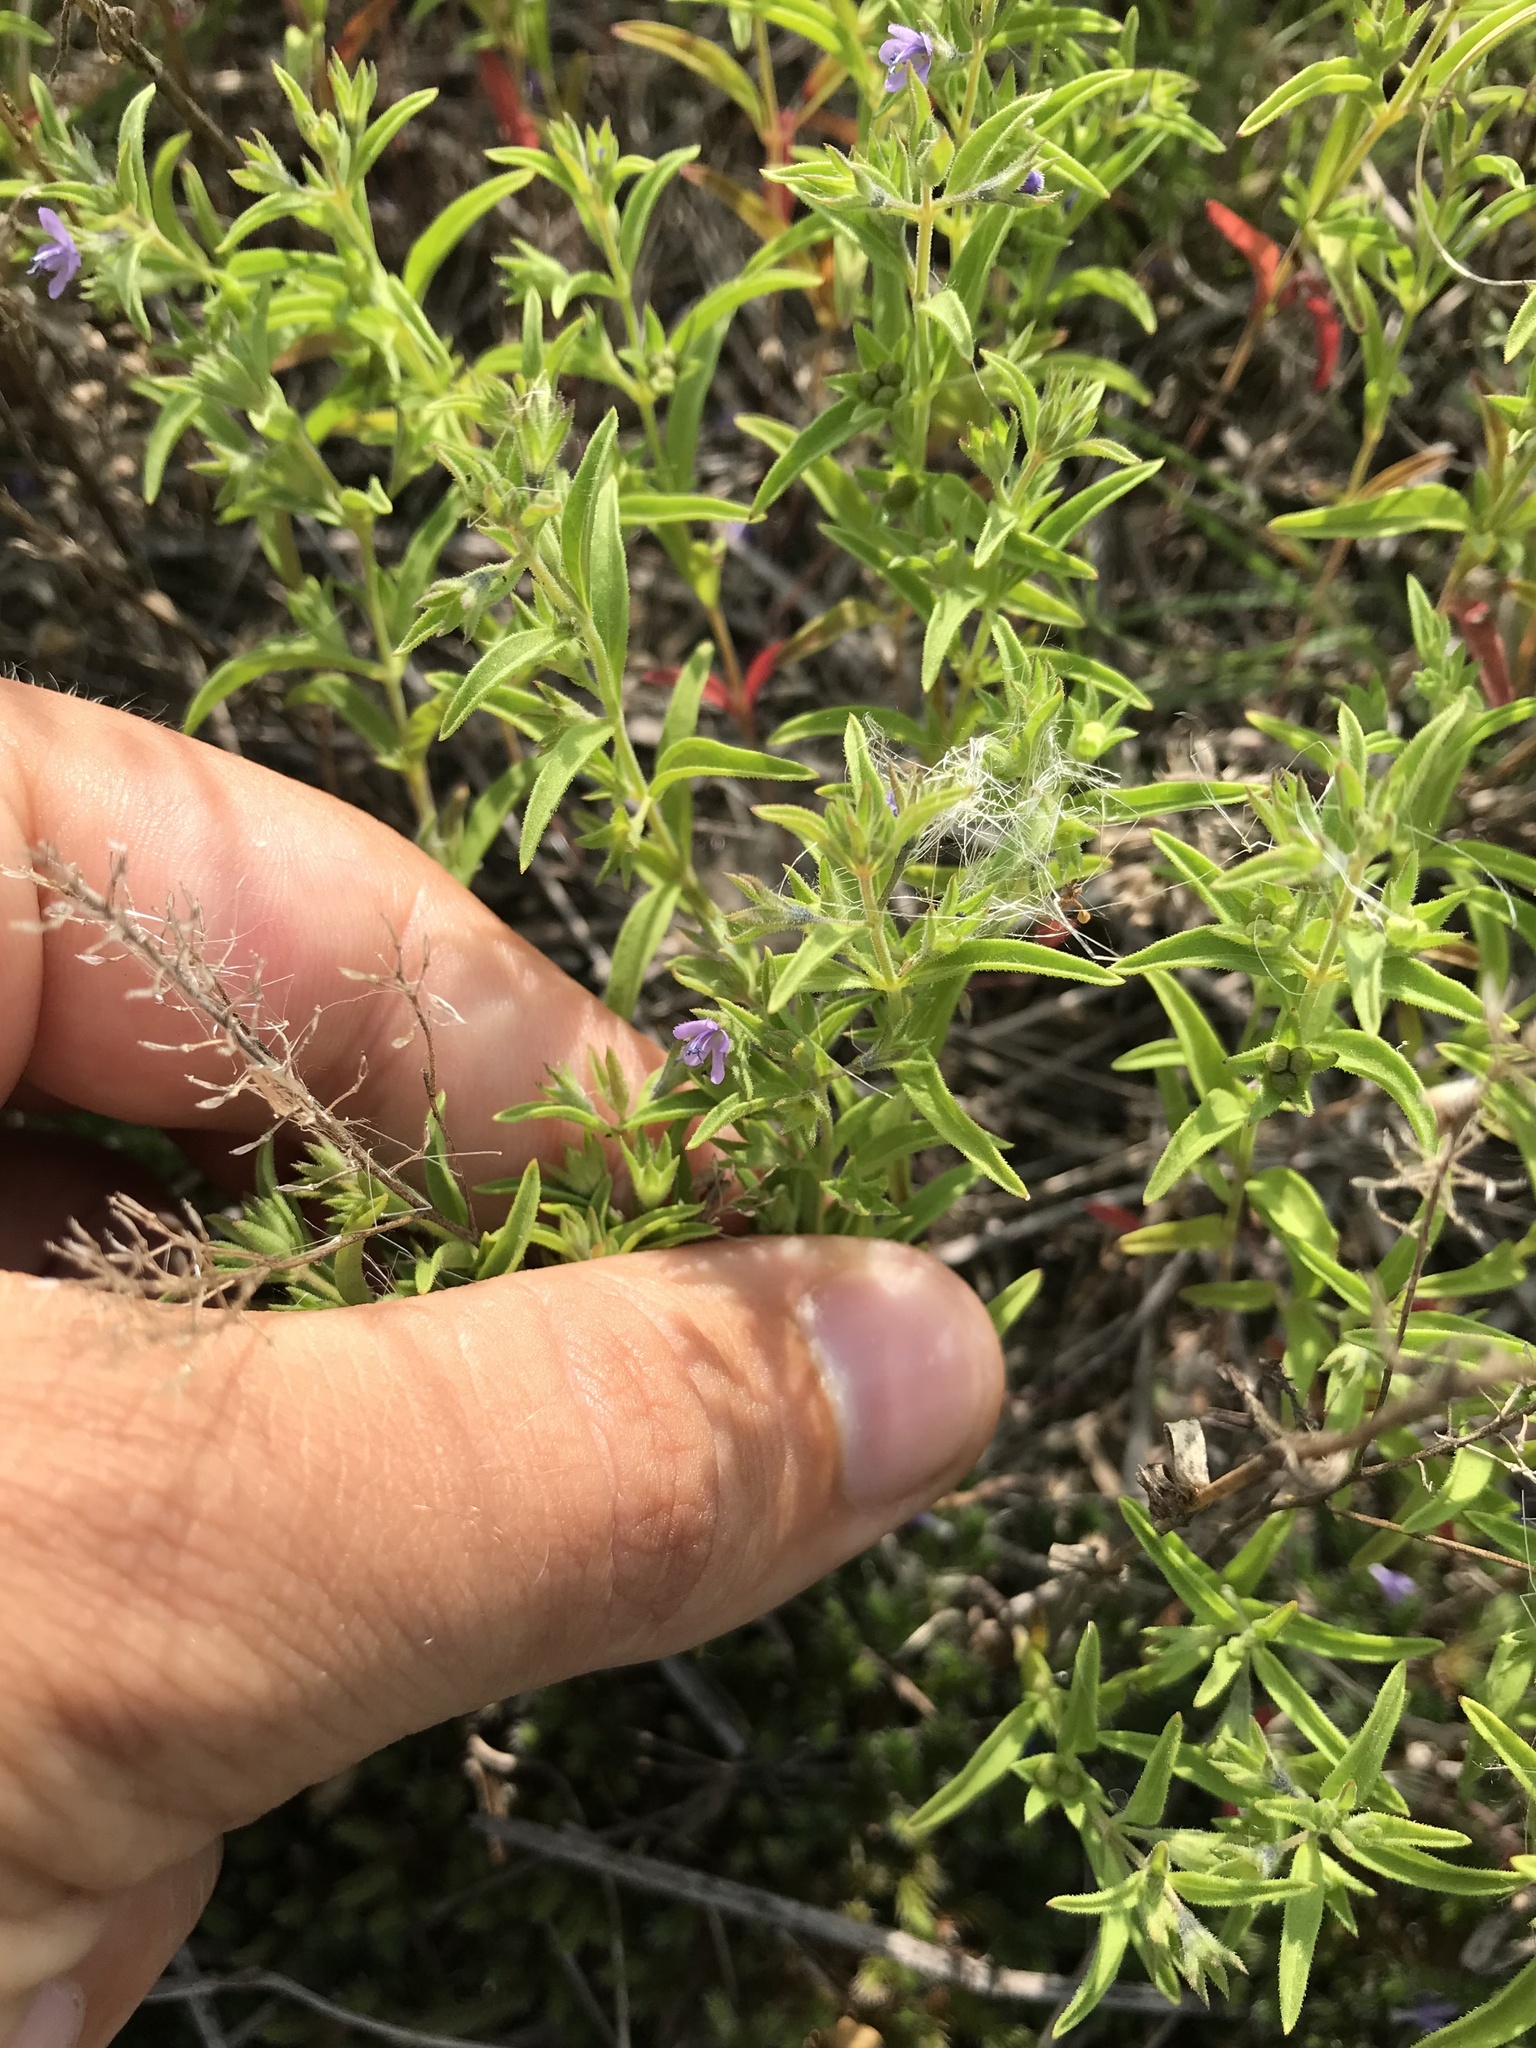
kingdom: Plantae
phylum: Tracheophyta
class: Magnoliopsida
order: Lamiales
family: Lamiaceae
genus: Trichostema
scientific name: Trichostema brachiatum
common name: False pennyroyal
